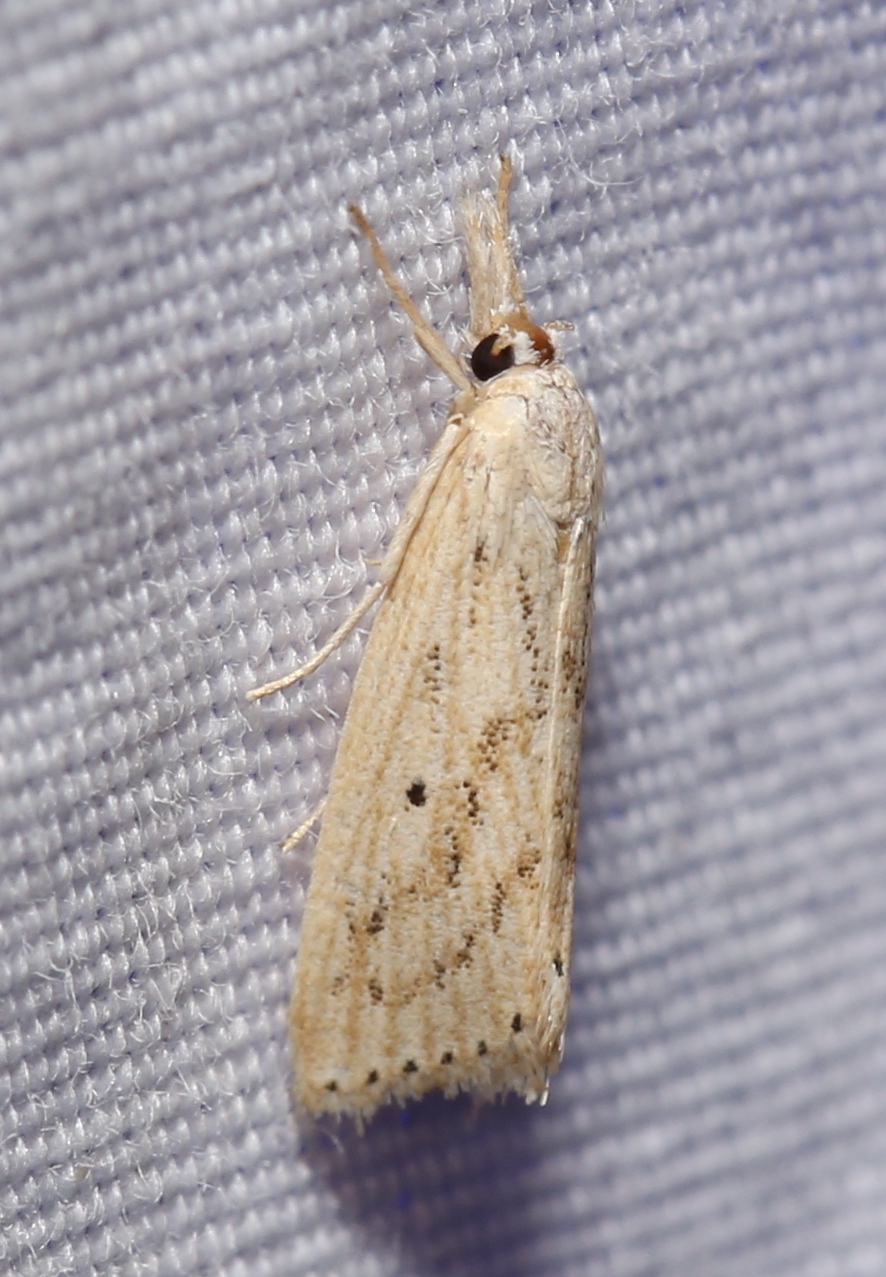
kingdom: Animalia
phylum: Arthropoda
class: Insecta
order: Lepidoptera
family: Crambidae
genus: Diatraea
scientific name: Diatraea lisetta
